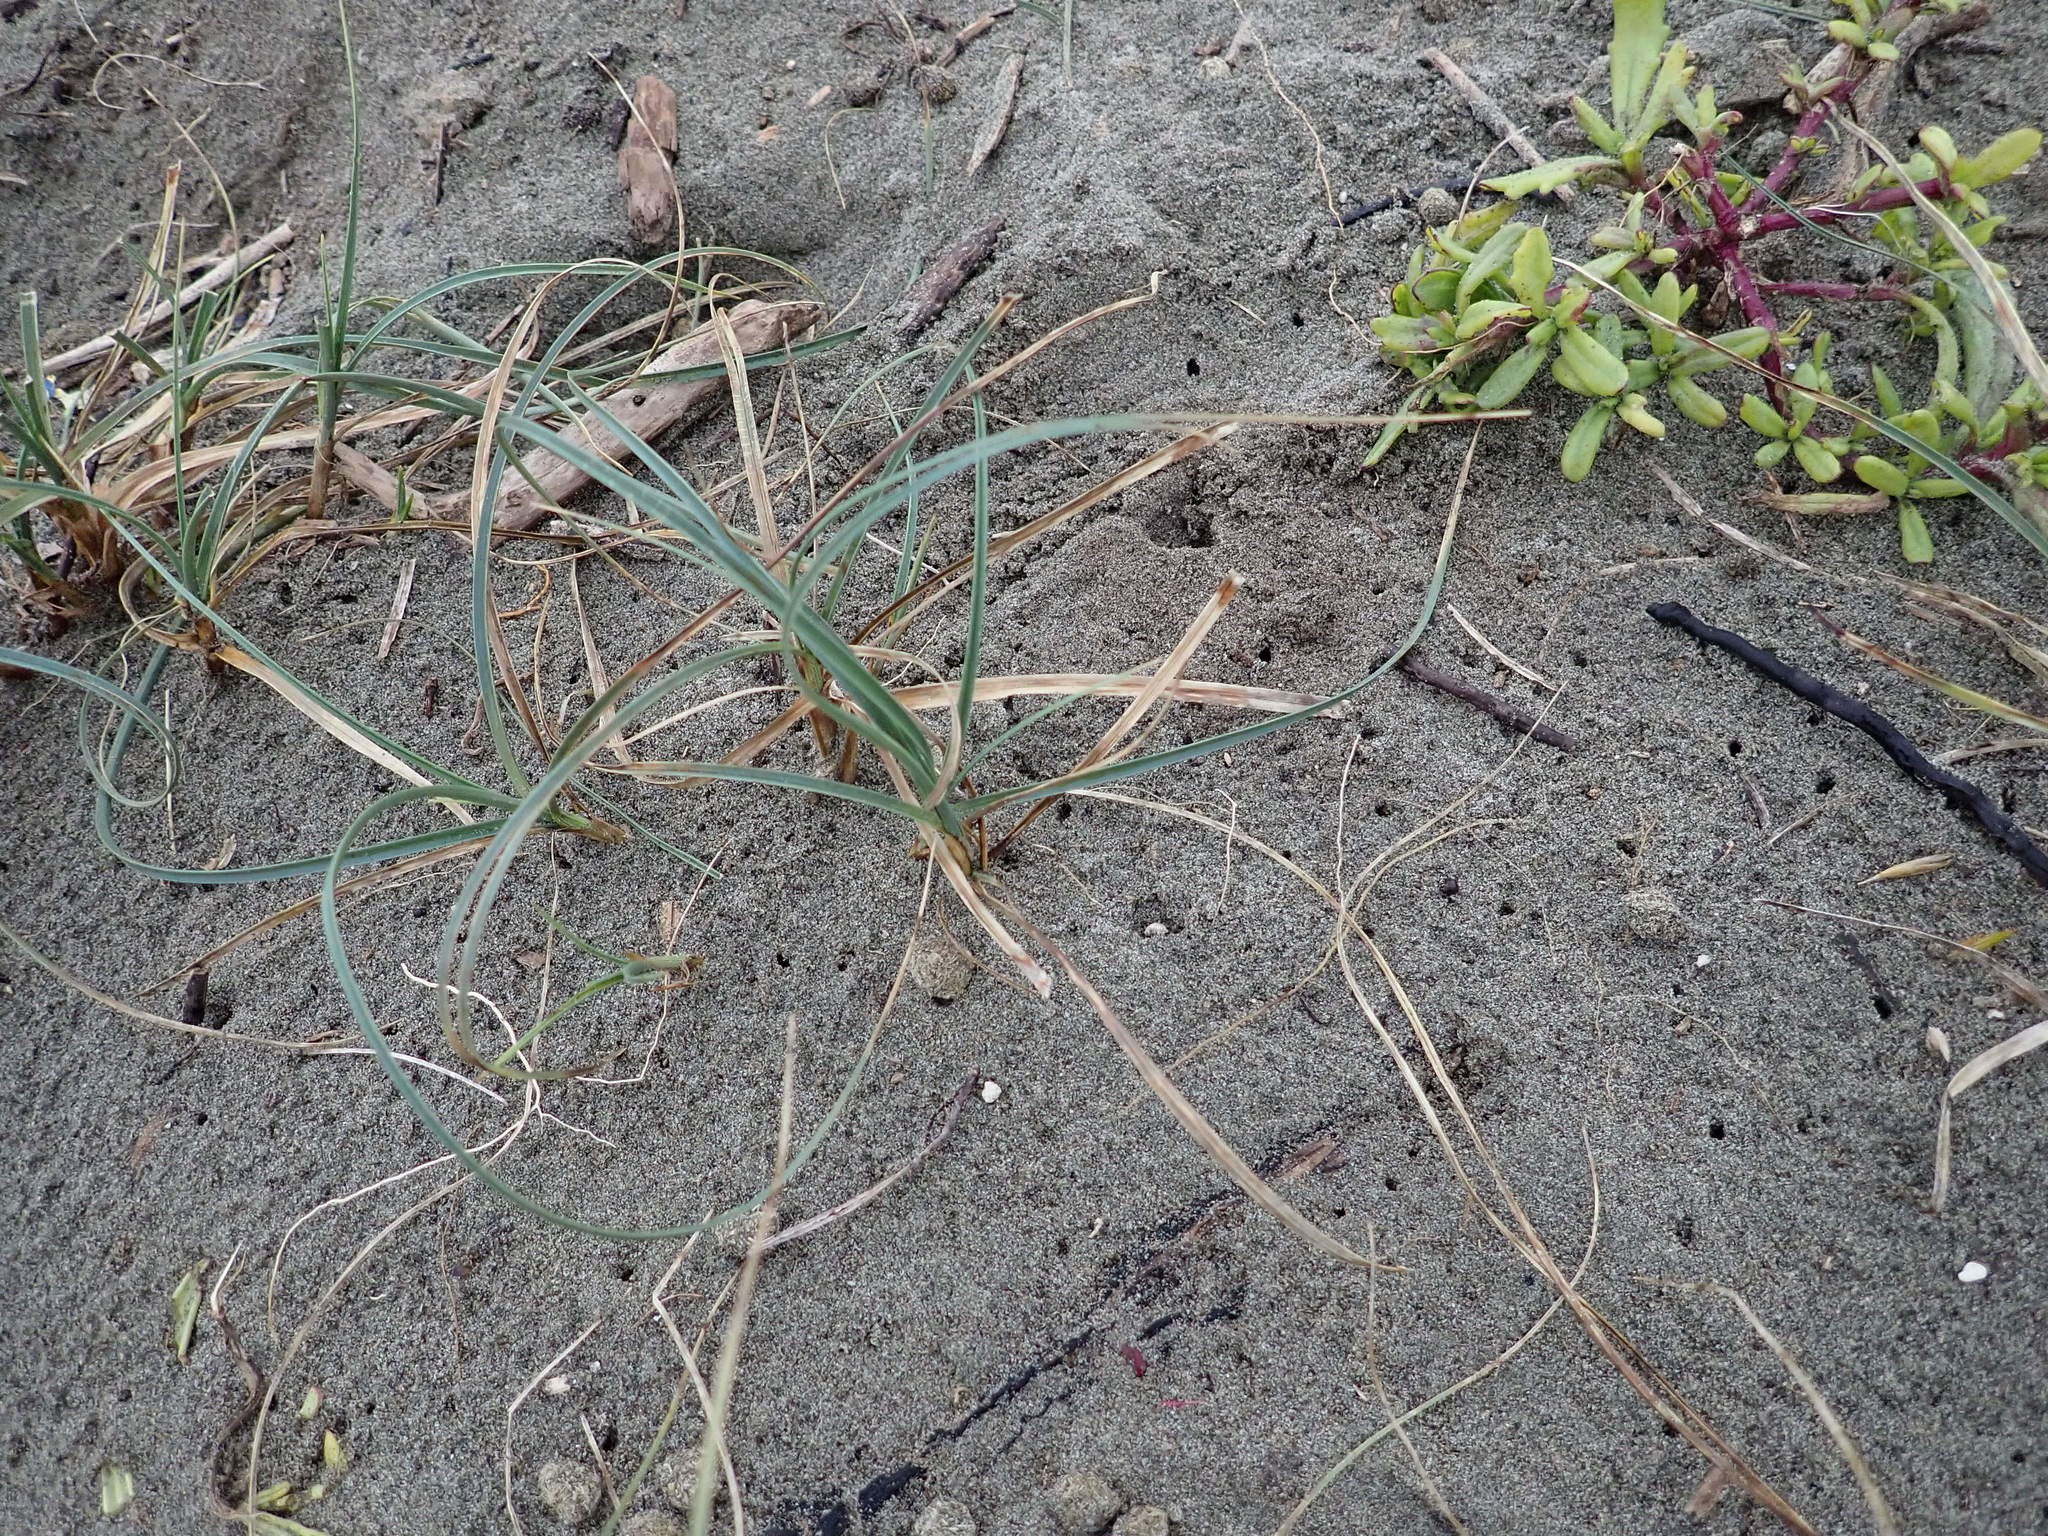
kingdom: Plantae
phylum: Tracheophyta
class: Liliopsida
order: Poales
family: Cyperaceae
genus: Carex
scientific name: Carex pumila
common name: Dwarf sedge
